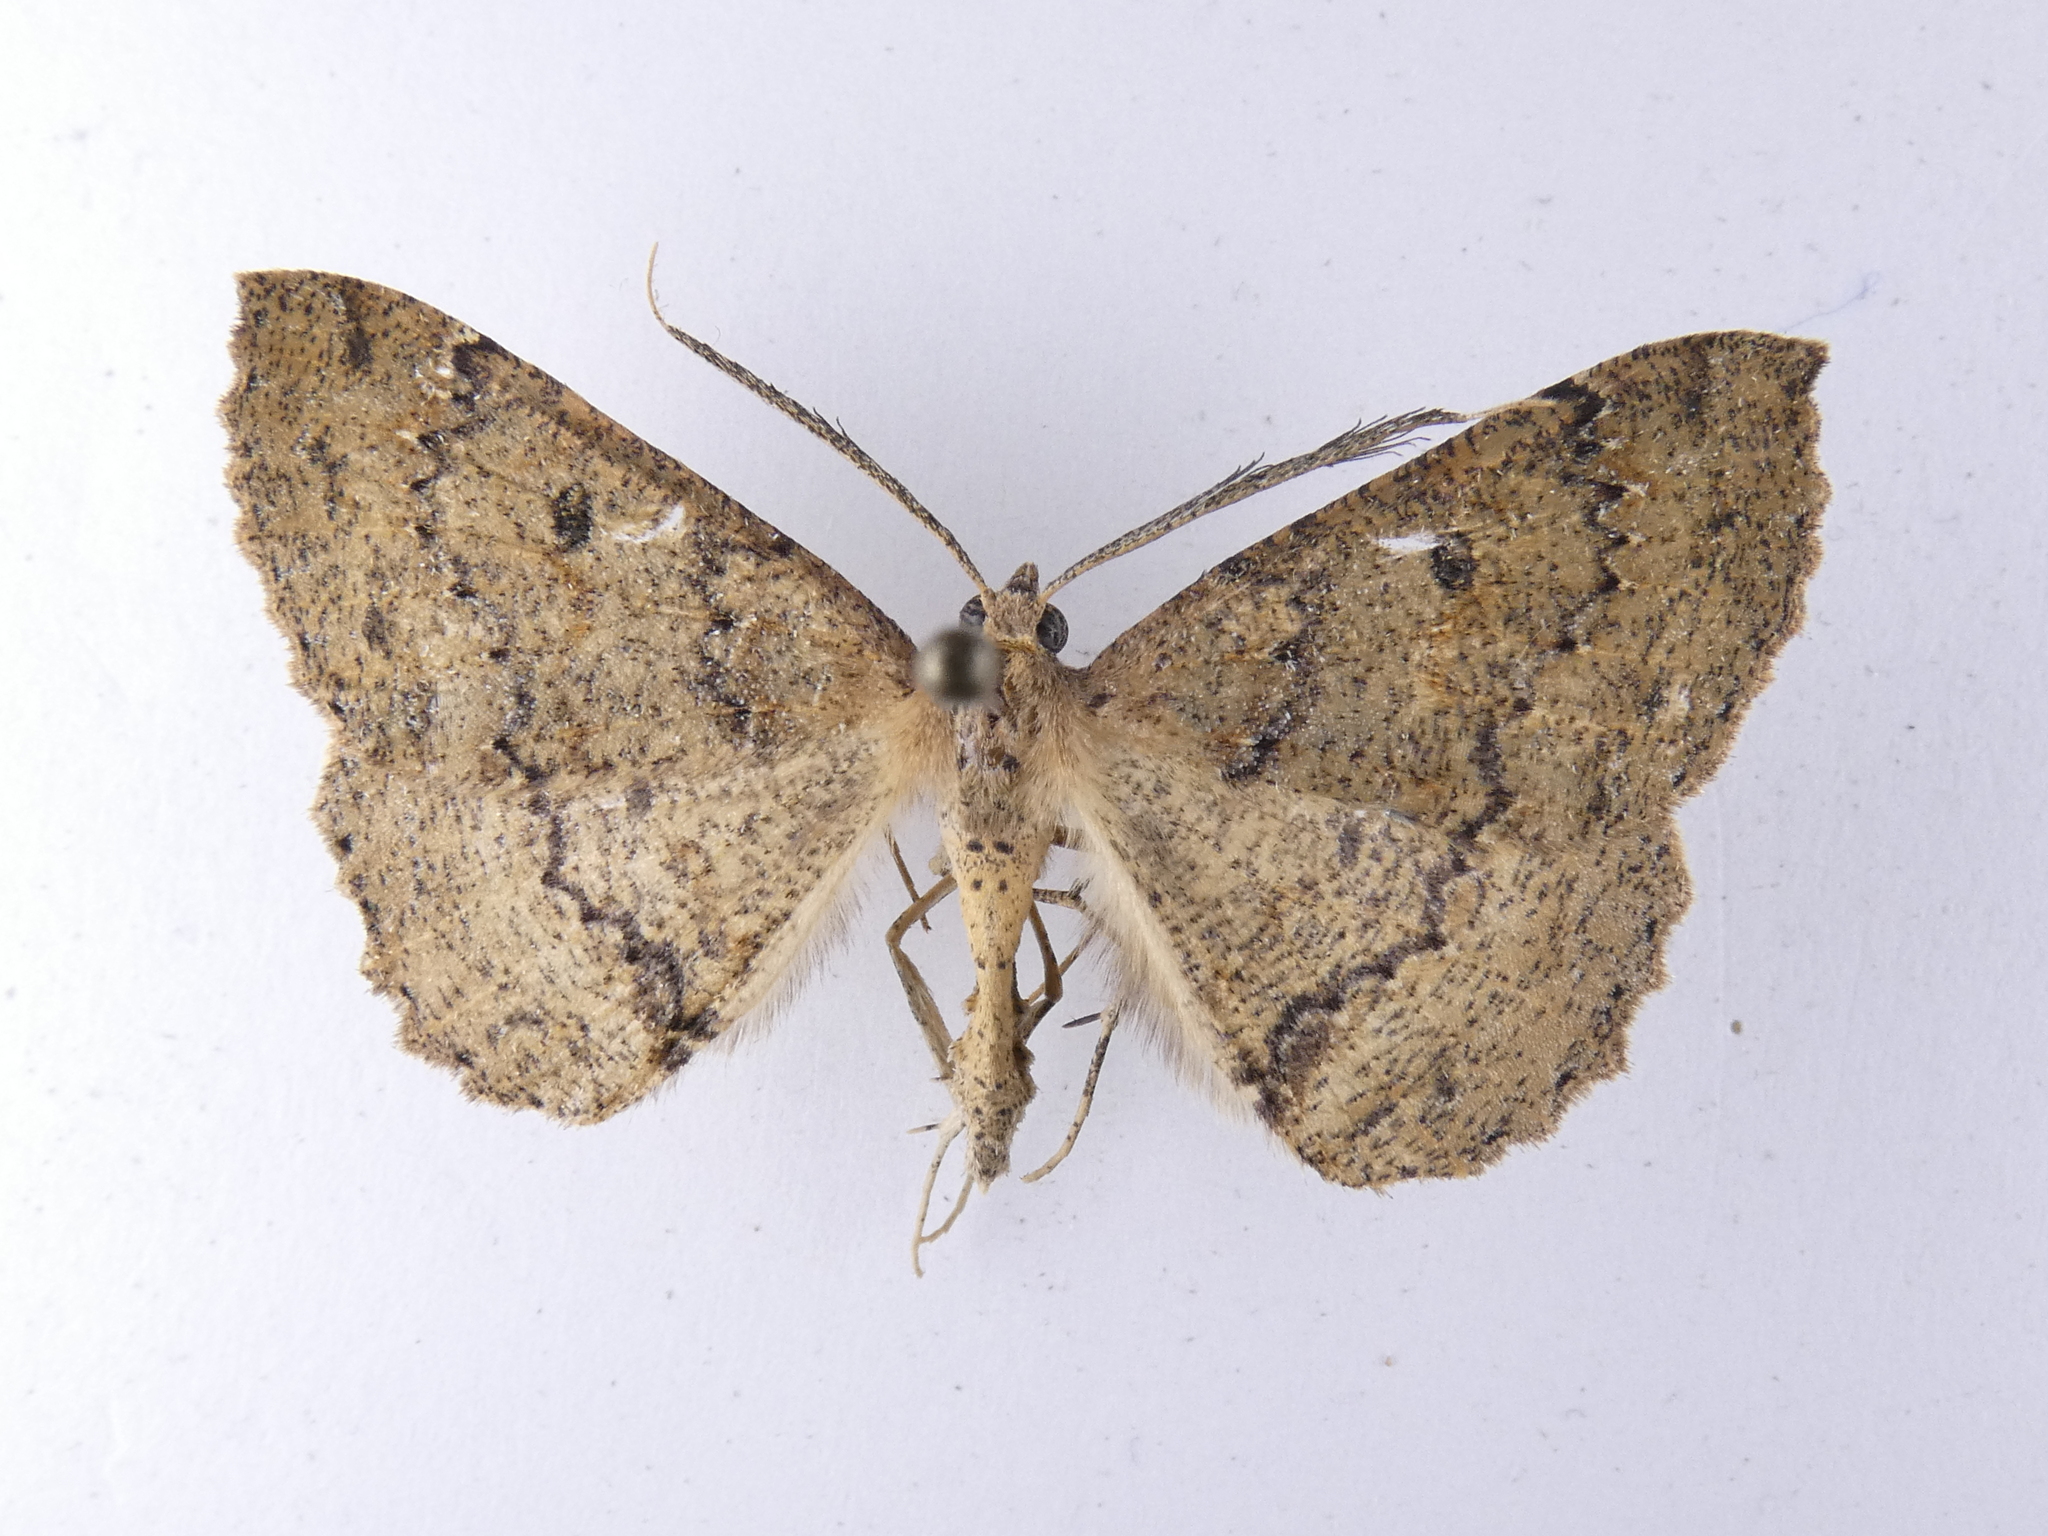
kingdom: Animalia
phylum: Arthropoda
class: Insecta
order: Lepidoptera
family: Geometridae
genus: Cleora
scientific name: Cleora scriptaria
